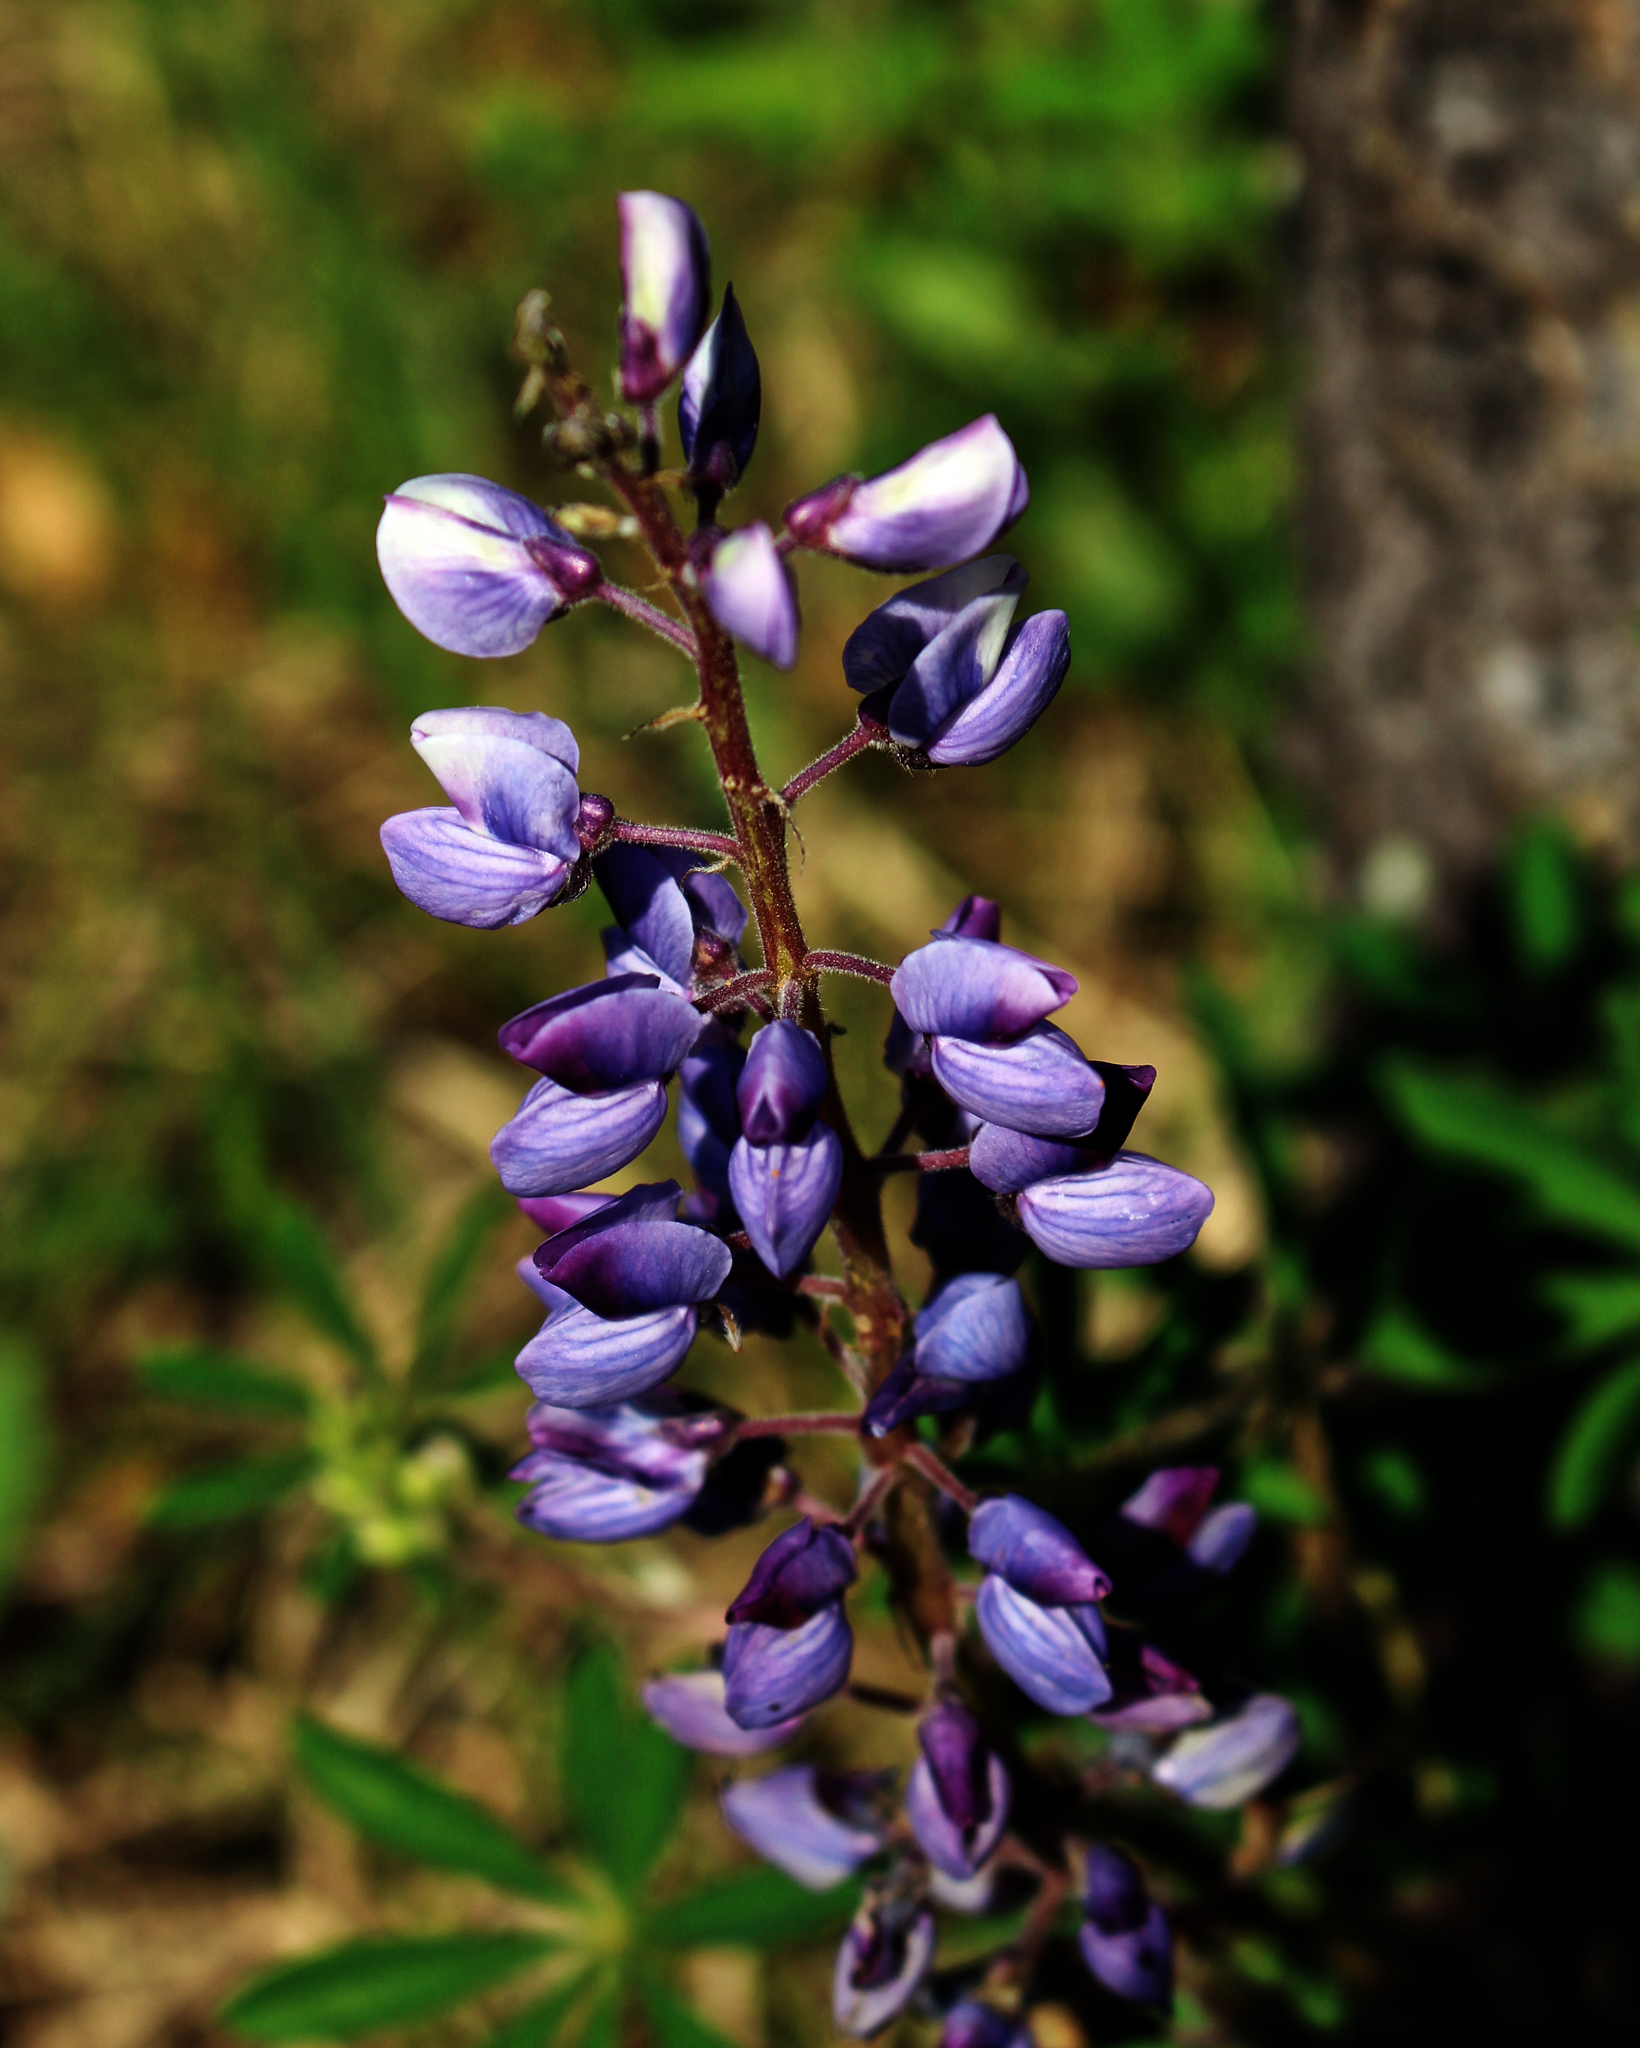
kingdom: Plantae
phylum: Tracheophyta
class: Magnoliopsida
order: Fabales
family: Fabaceae
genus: Lupinus
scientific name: Lupinus perennis
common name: Sundial lupine
